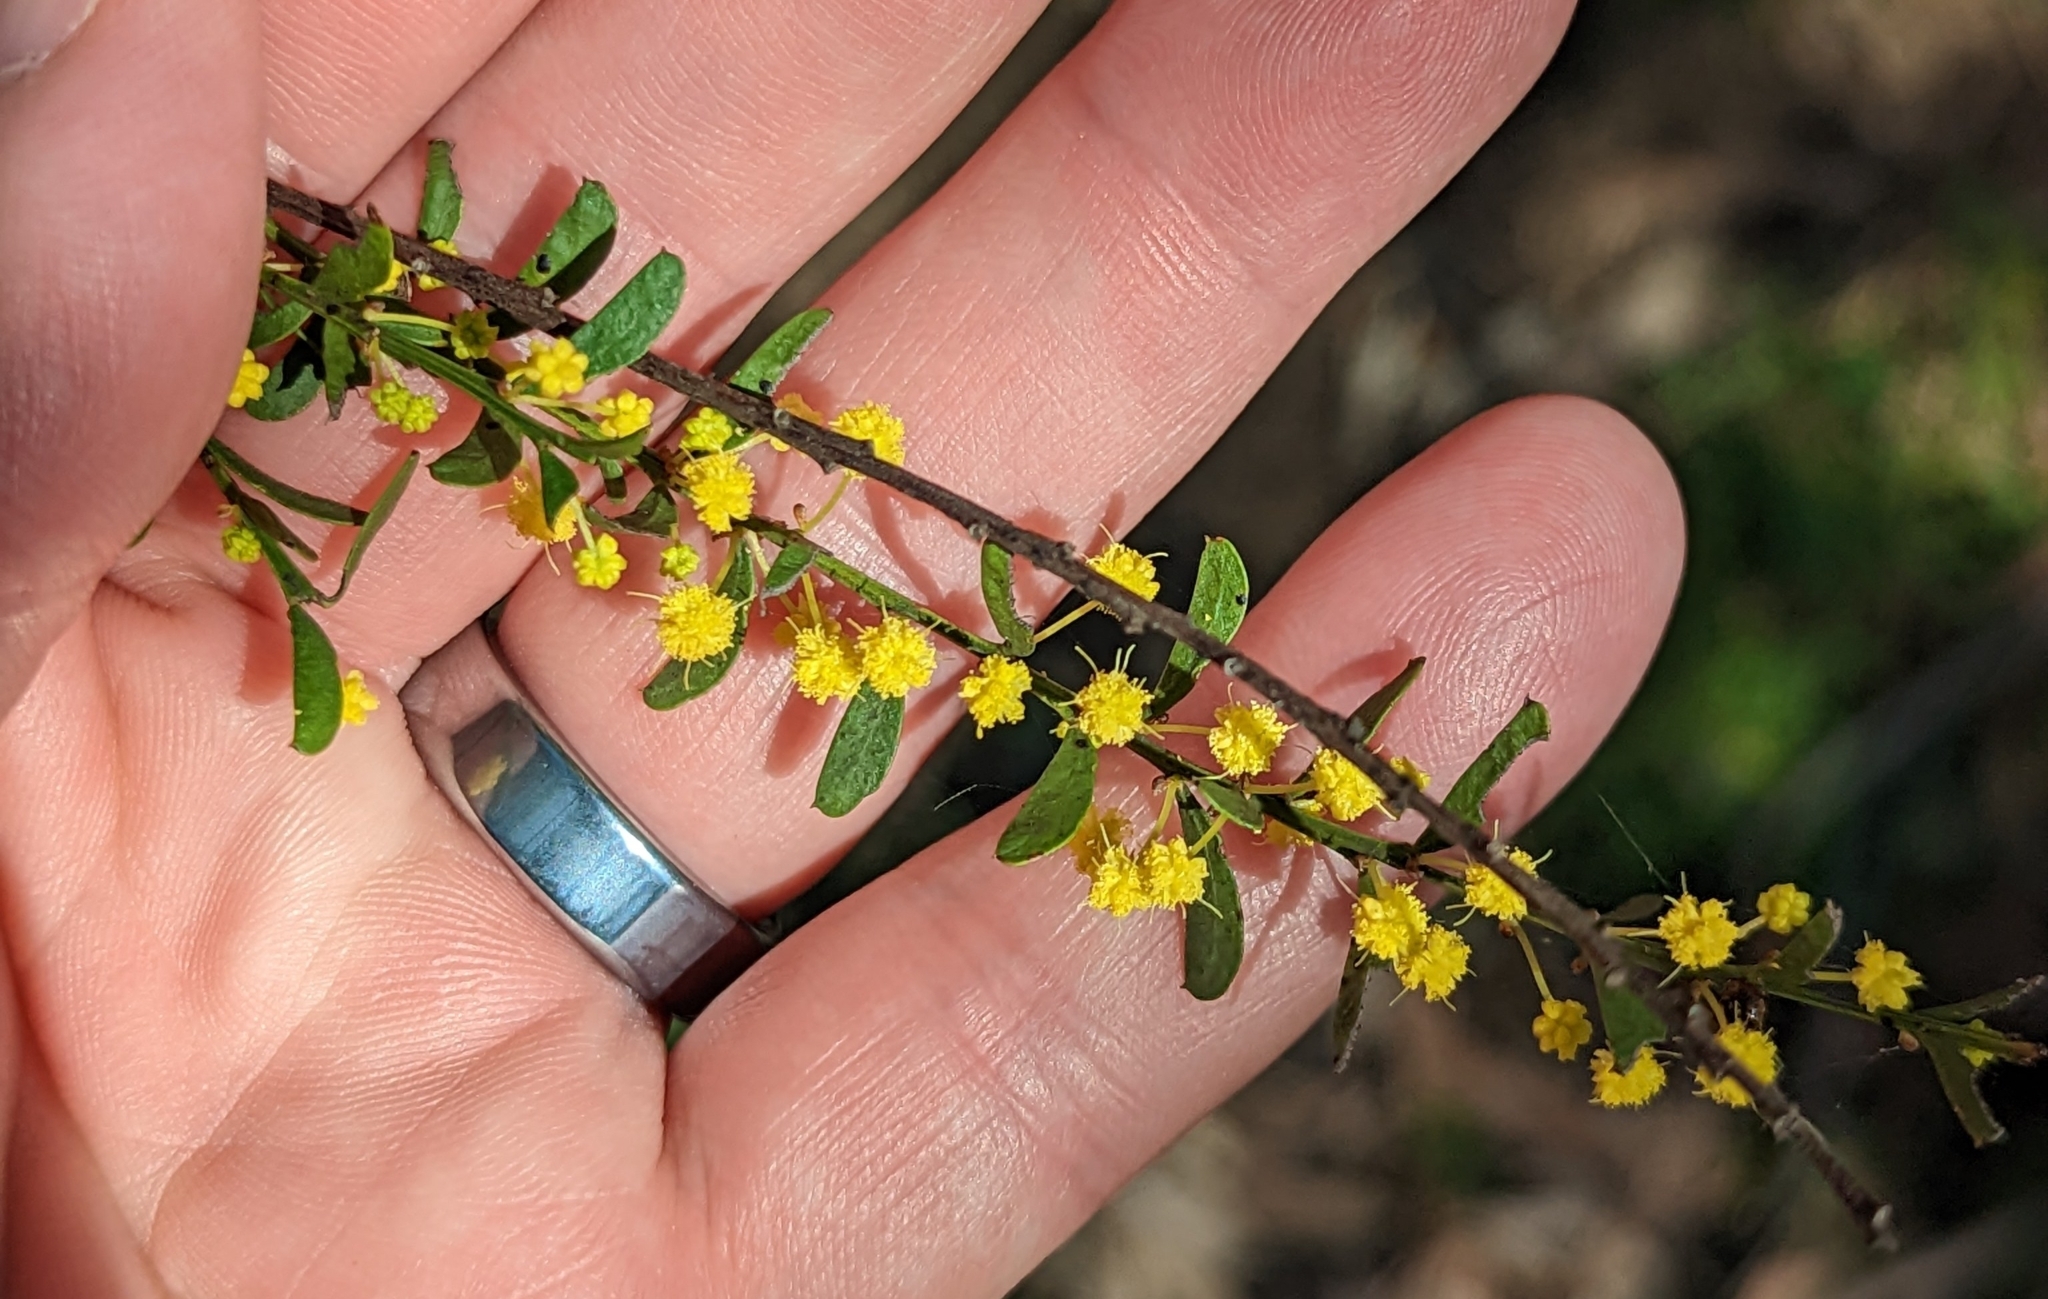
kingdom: Plantae
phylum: Tracheophyta
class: Magnoliopsida
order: Fabales
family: Fabaceae
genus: Acacia
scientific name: Acacia acinacea
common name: Gold-dust acacia
